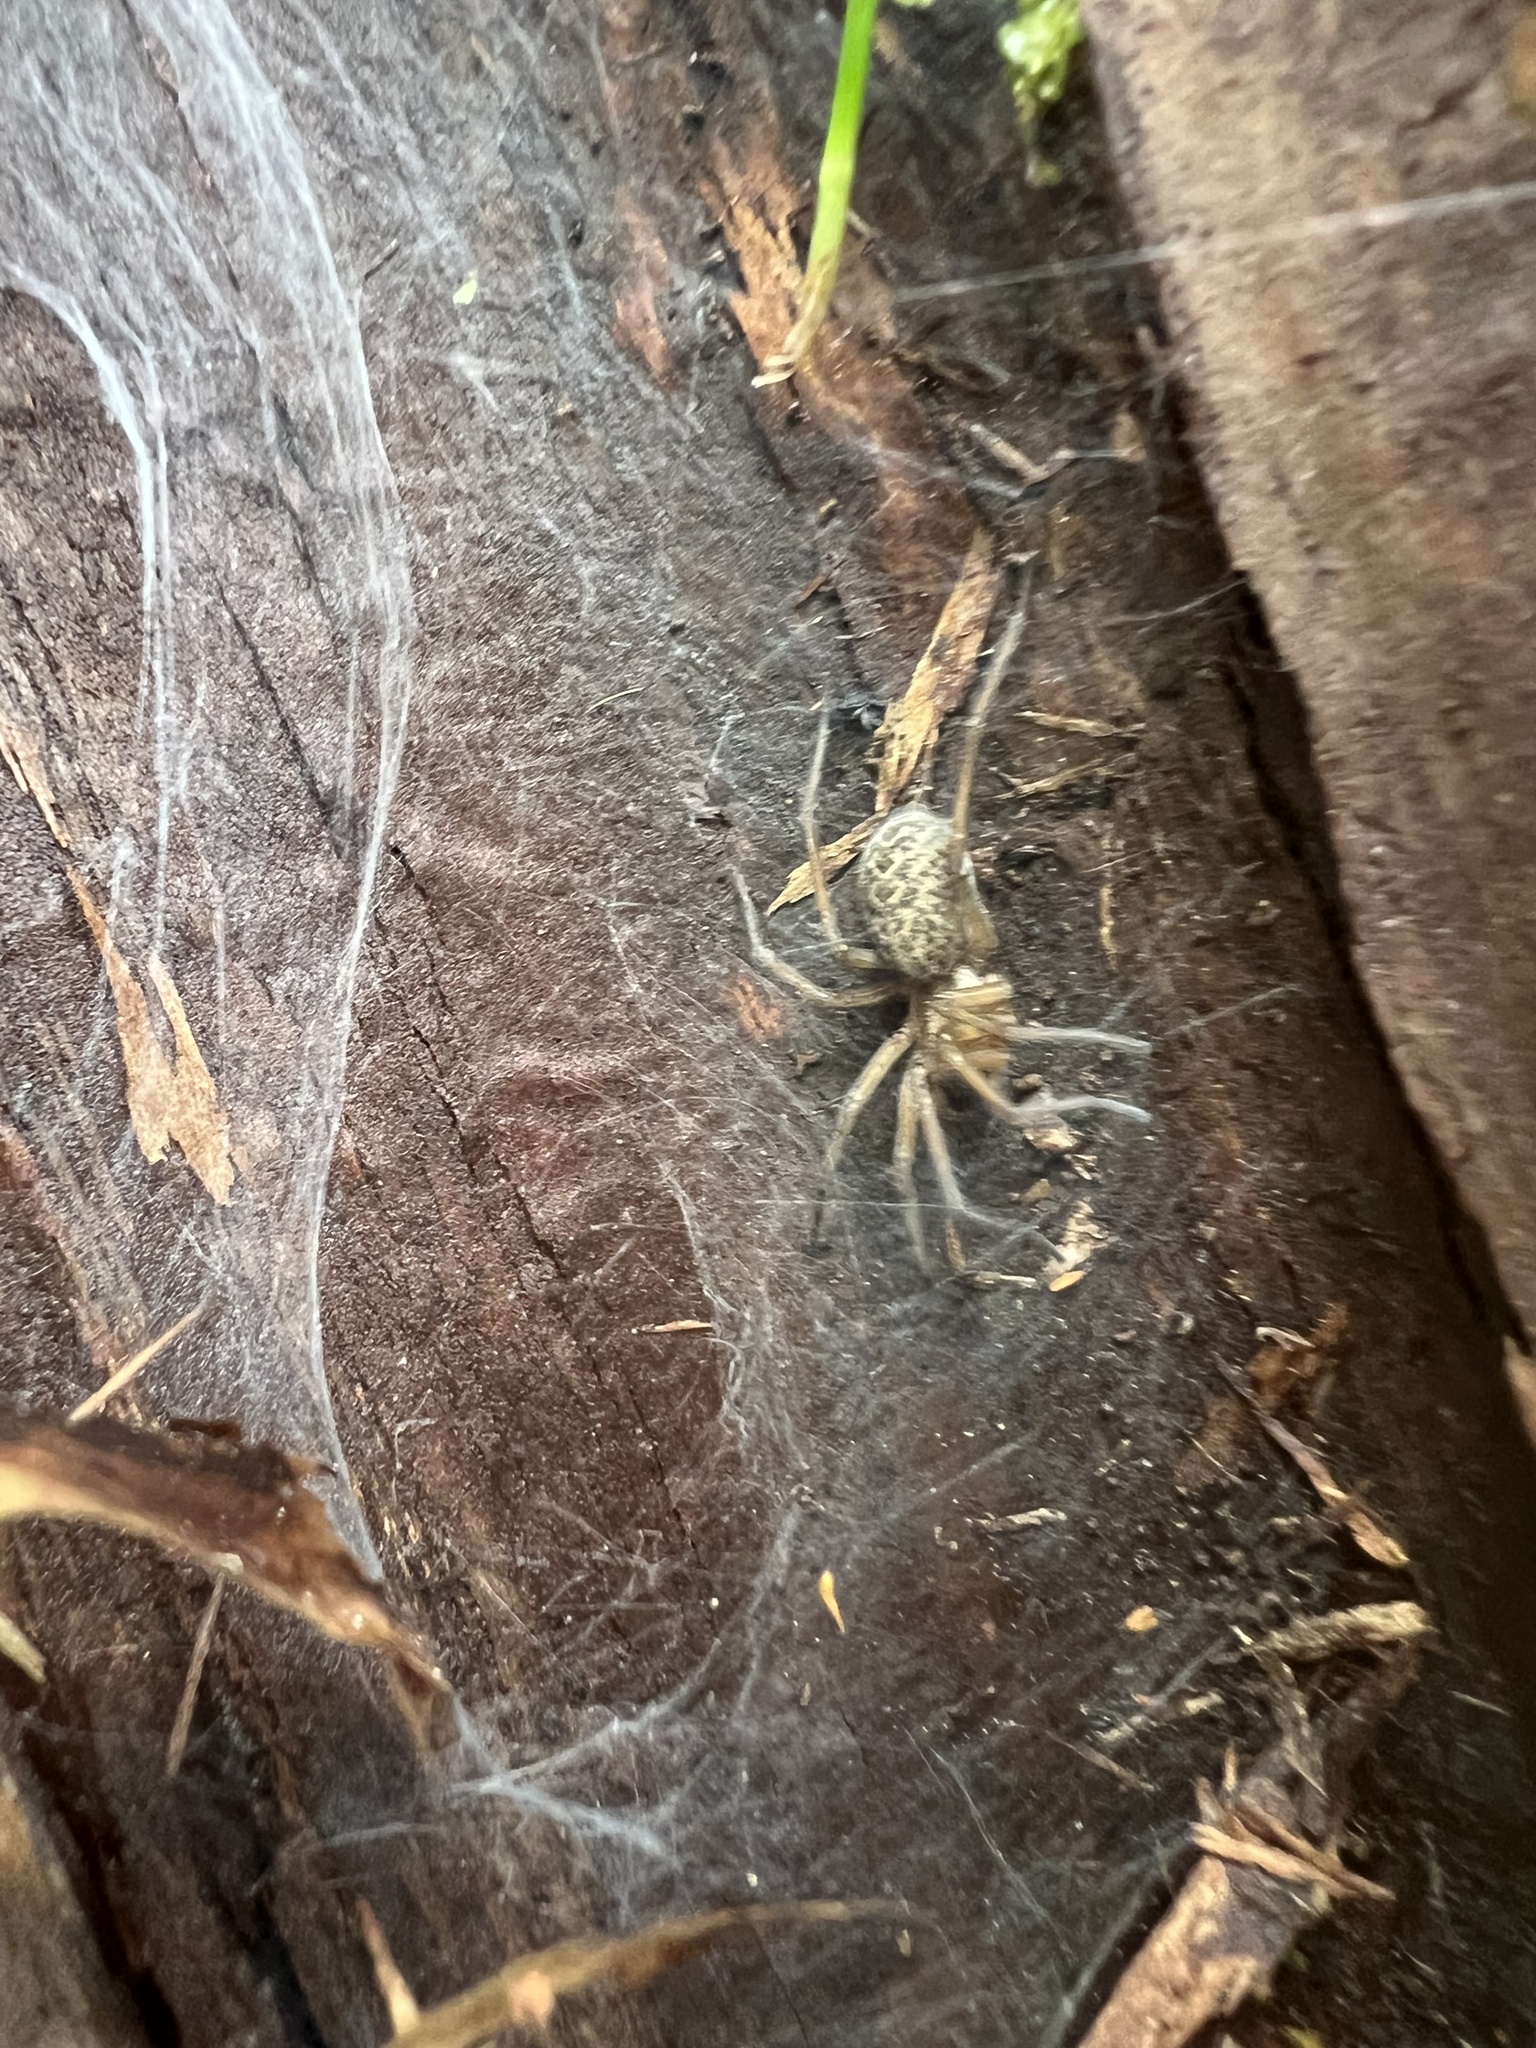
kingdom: Animalia
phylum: Arthropoda
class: Arachnida
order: Araneae
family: Agelenidae
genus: Eratigena
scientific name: Eratigena agrestis
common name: Hobo spider
